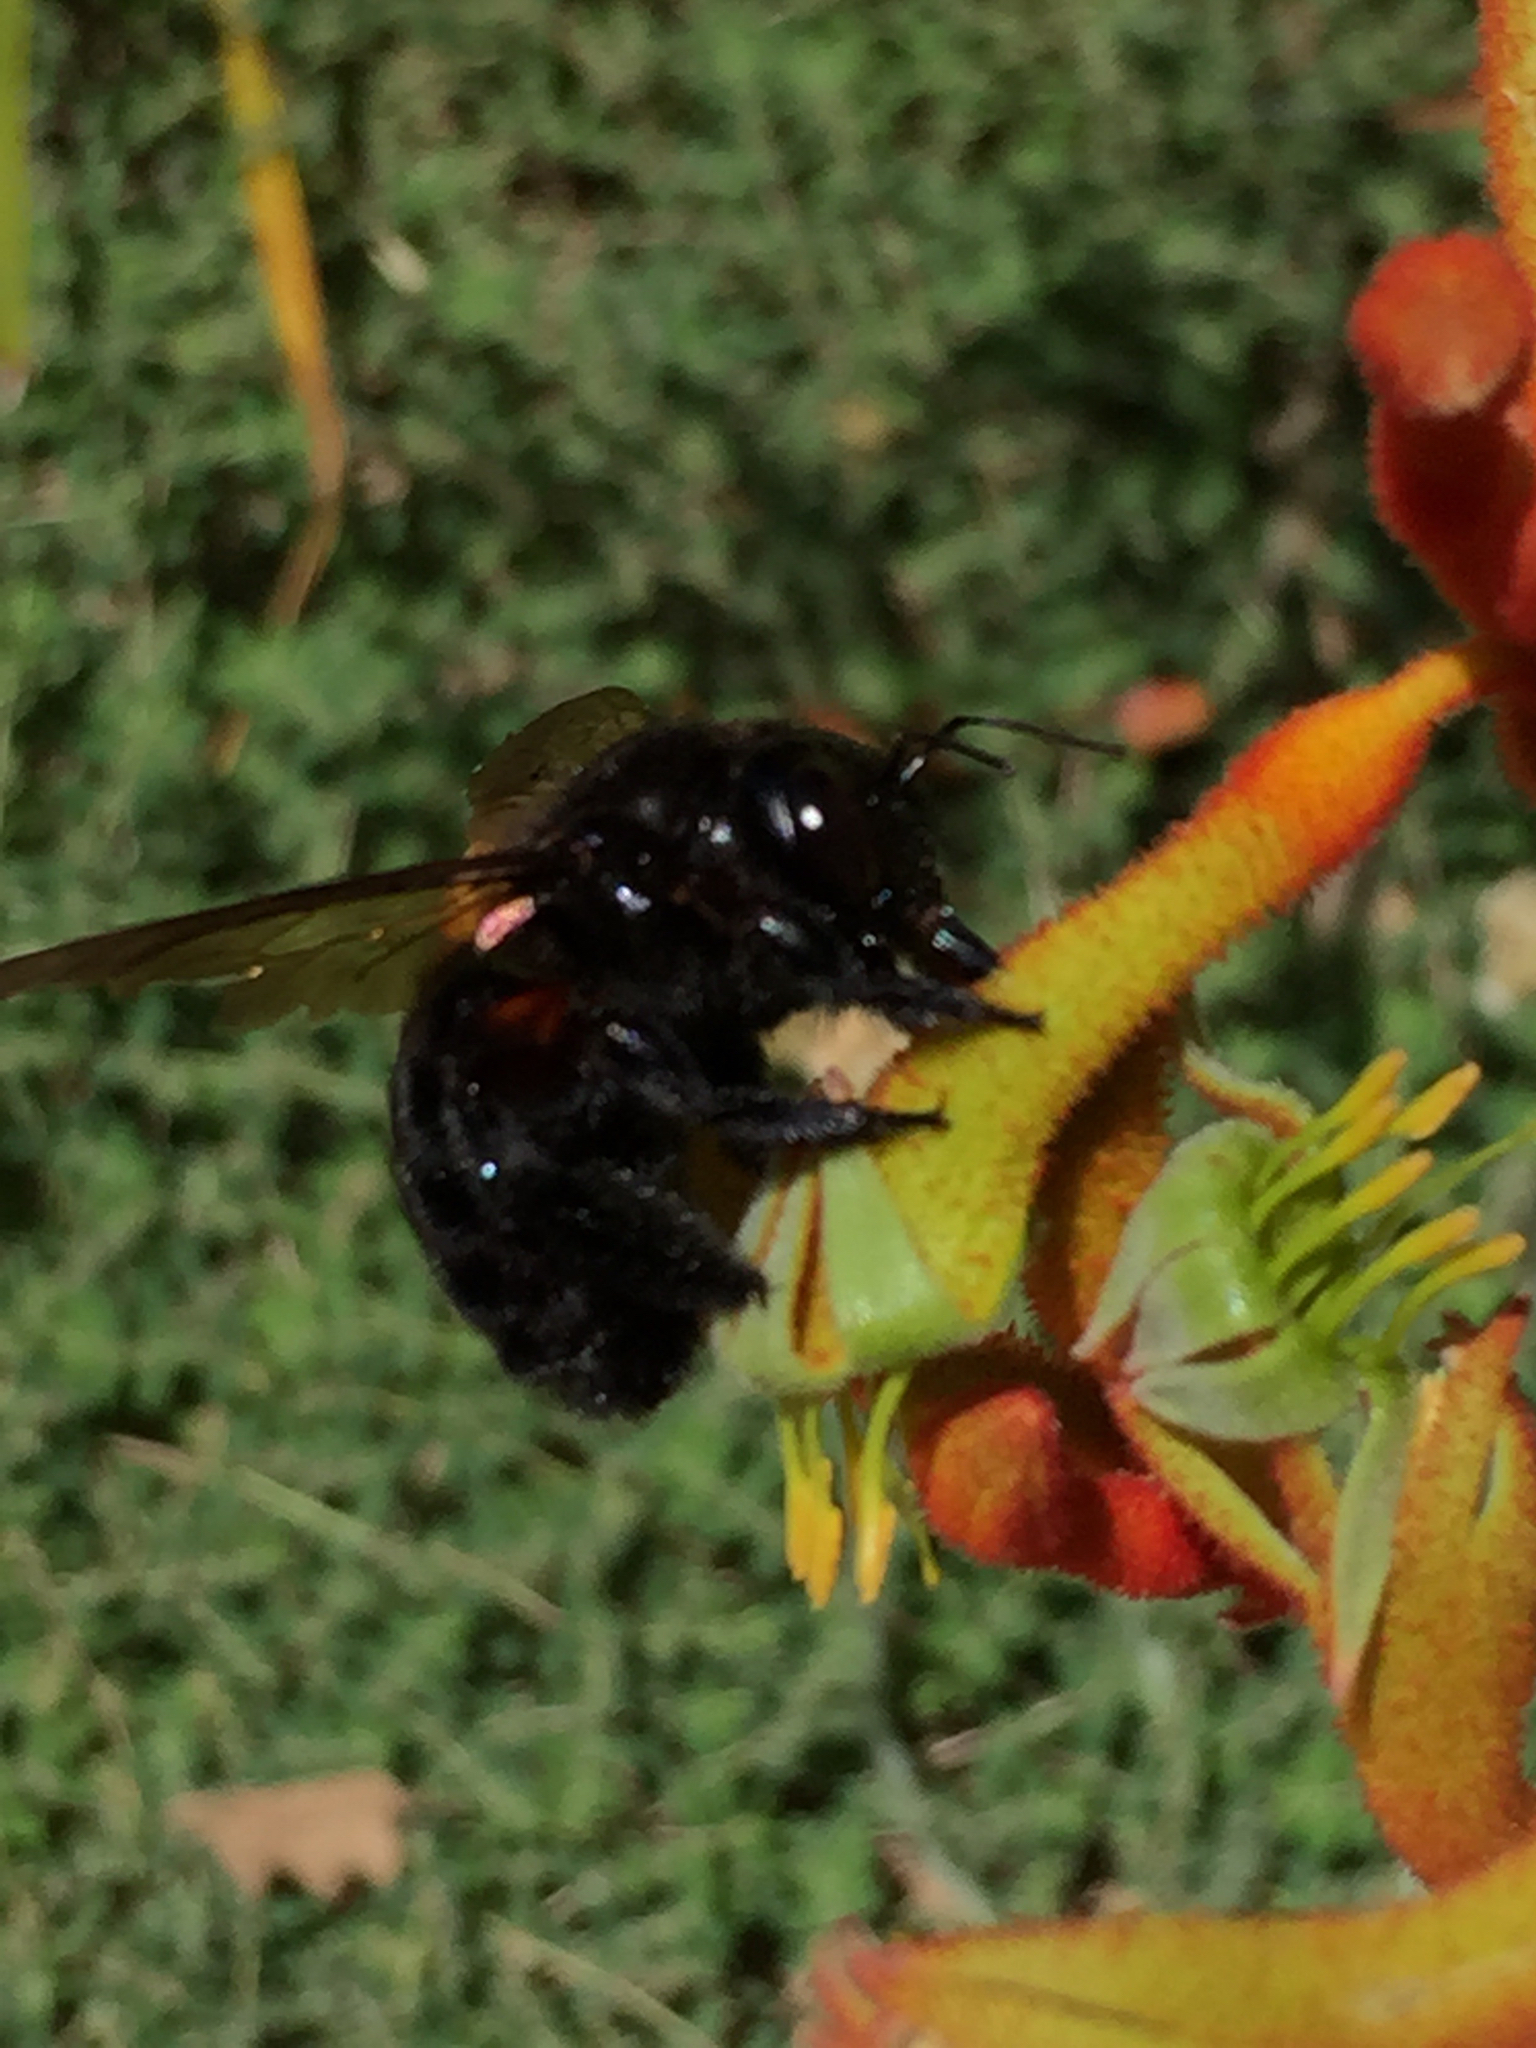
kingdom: Animalia
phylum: Arthropoda
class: Insecta
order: Hymenoptera
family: Apidae
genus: Xylocopa
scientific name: Xylocopa sonorina
